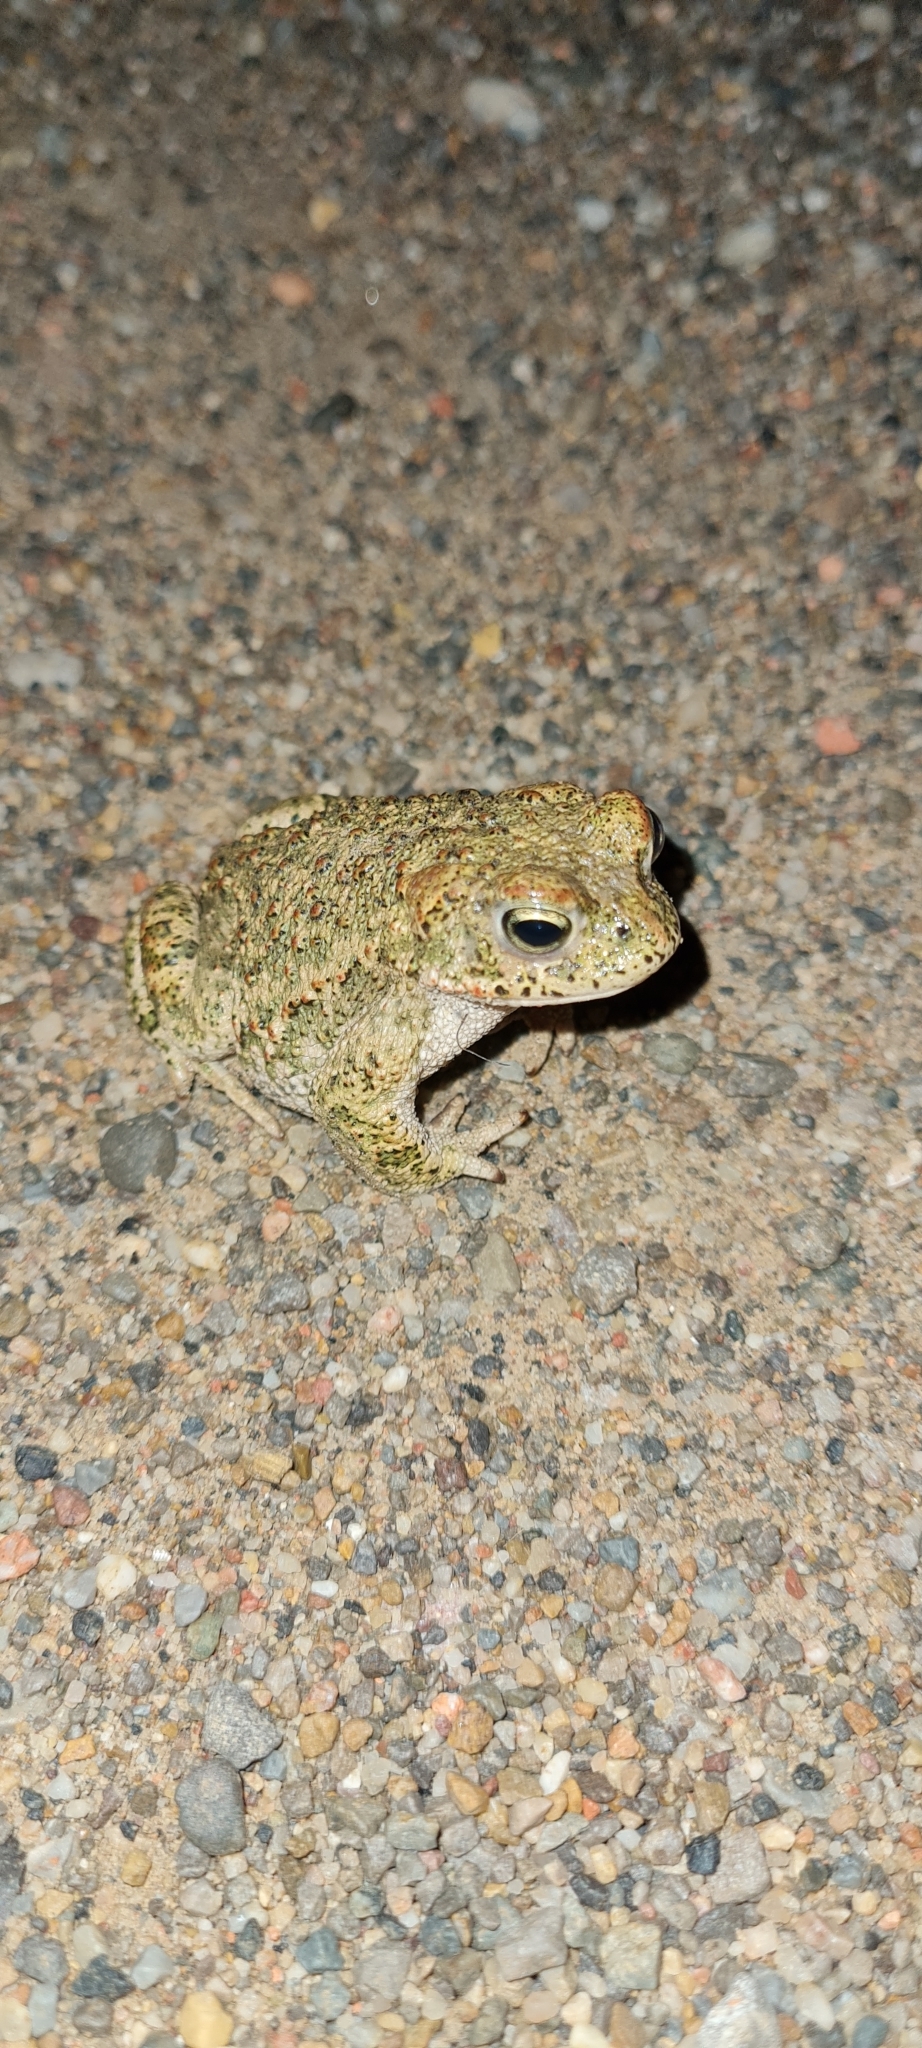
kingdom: Animalia
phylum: Chordata
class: Amphibia
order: Anura
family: Bufonidae
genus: Epidalea
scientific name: Epidalea calamita
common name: Natterjack toad
